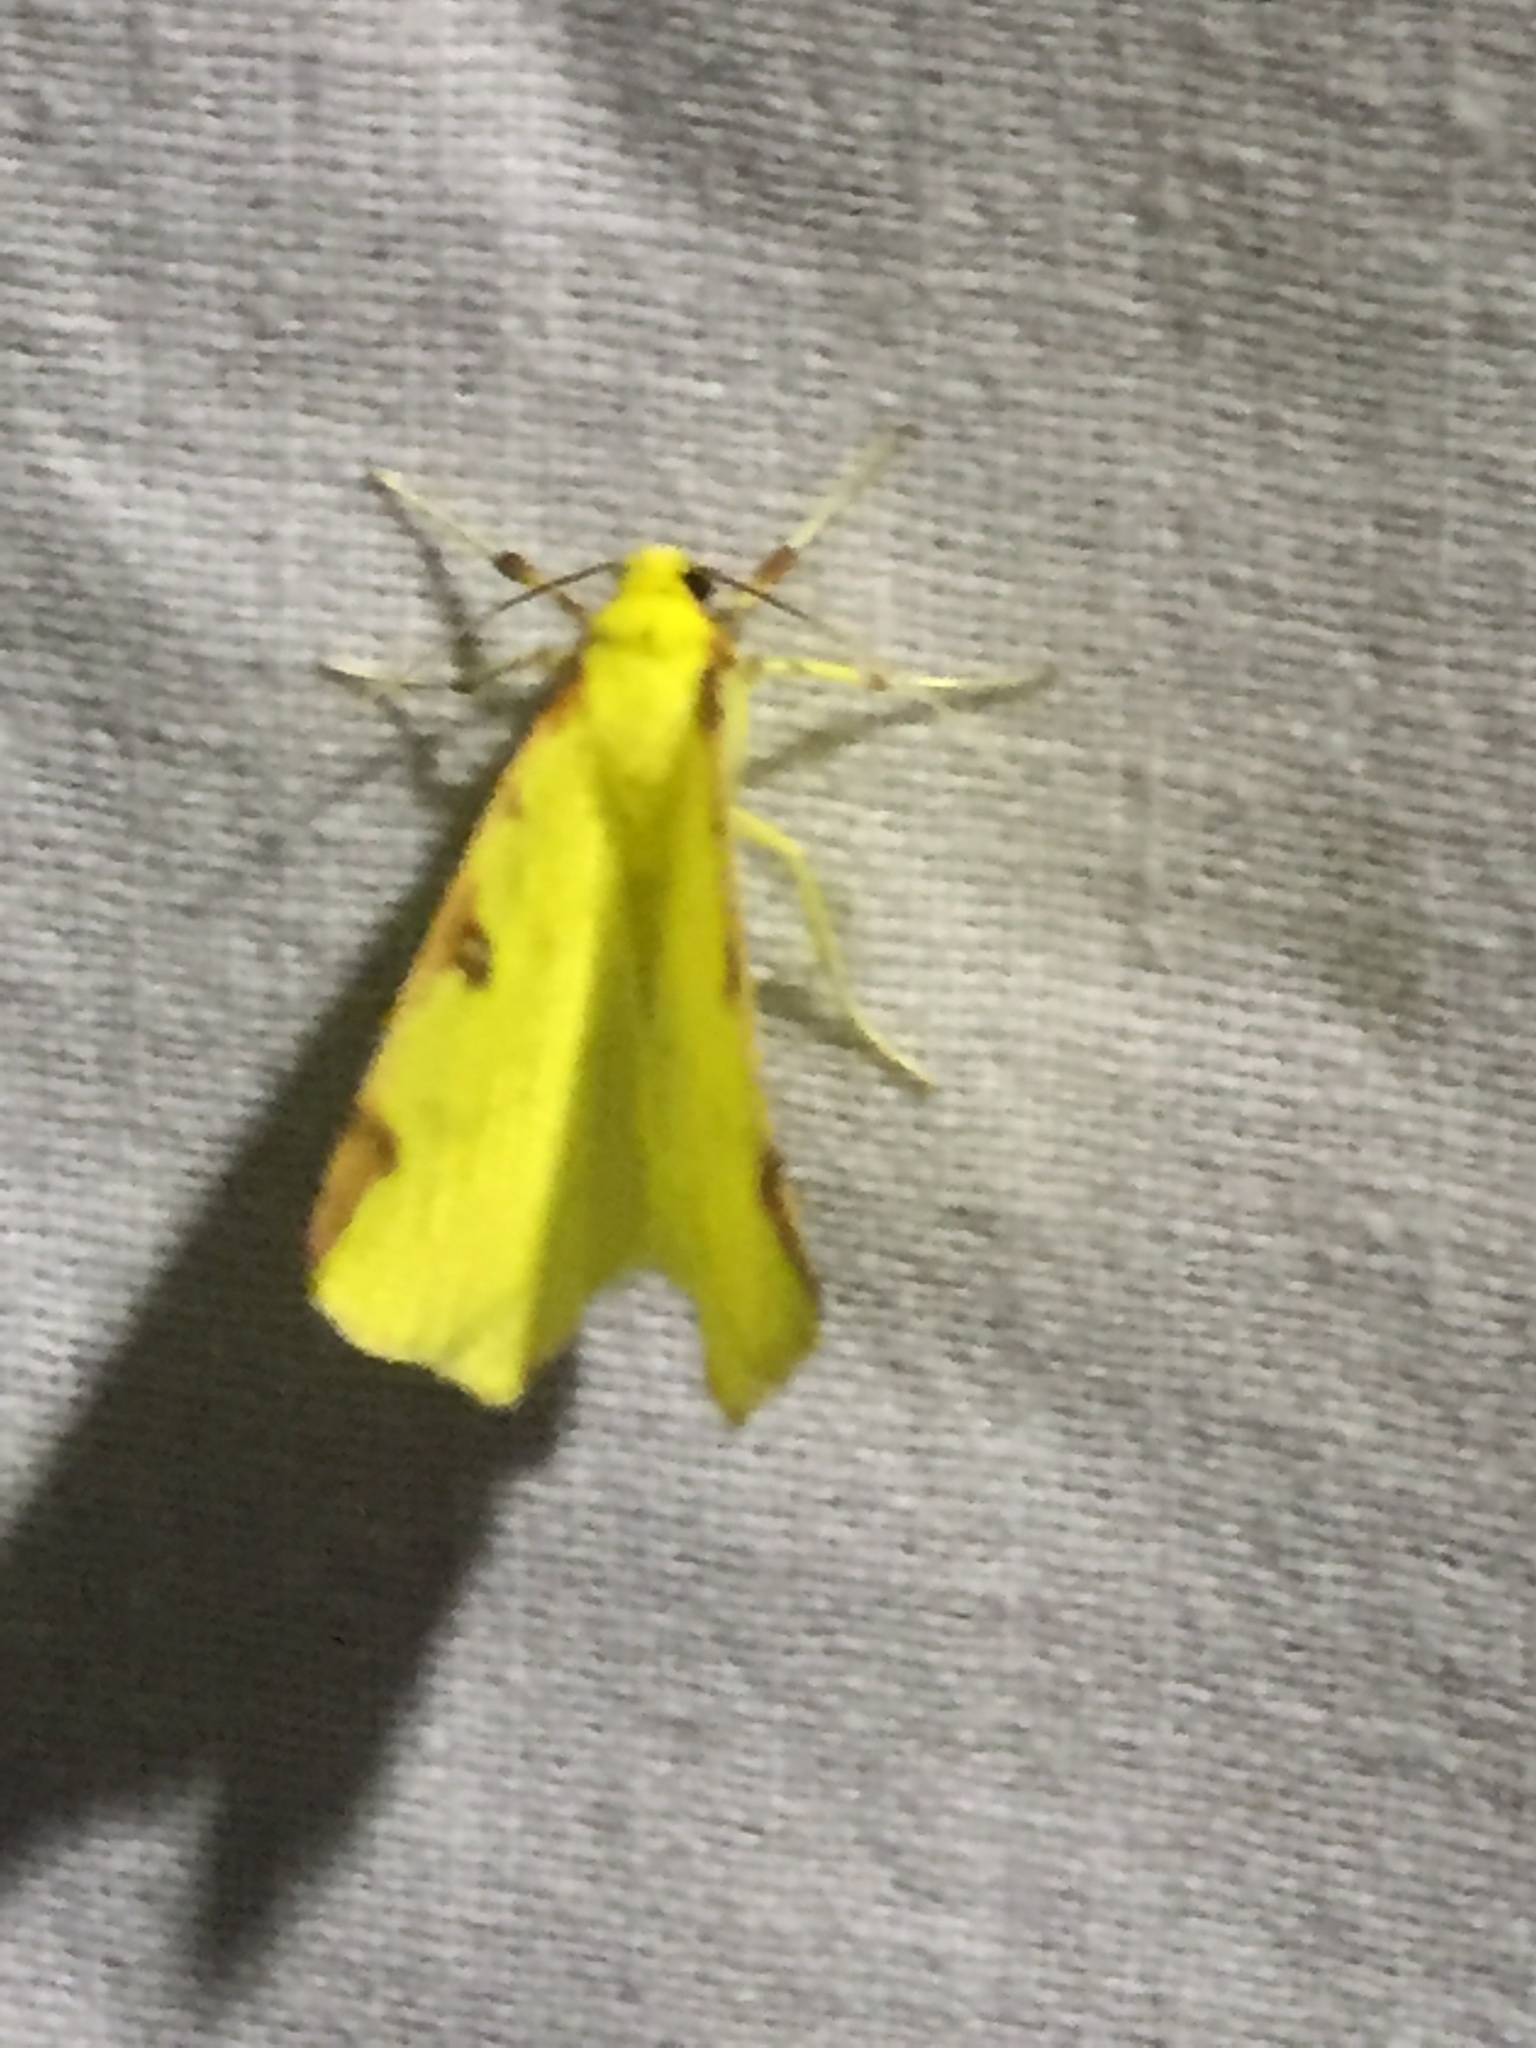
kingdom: Animalia
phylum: Arthropoda
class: Insecta
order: Lepidoptera
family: Geometridae
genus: Opisthograptis
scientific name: Opisthograptis luteolata
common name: Brimstone moth
